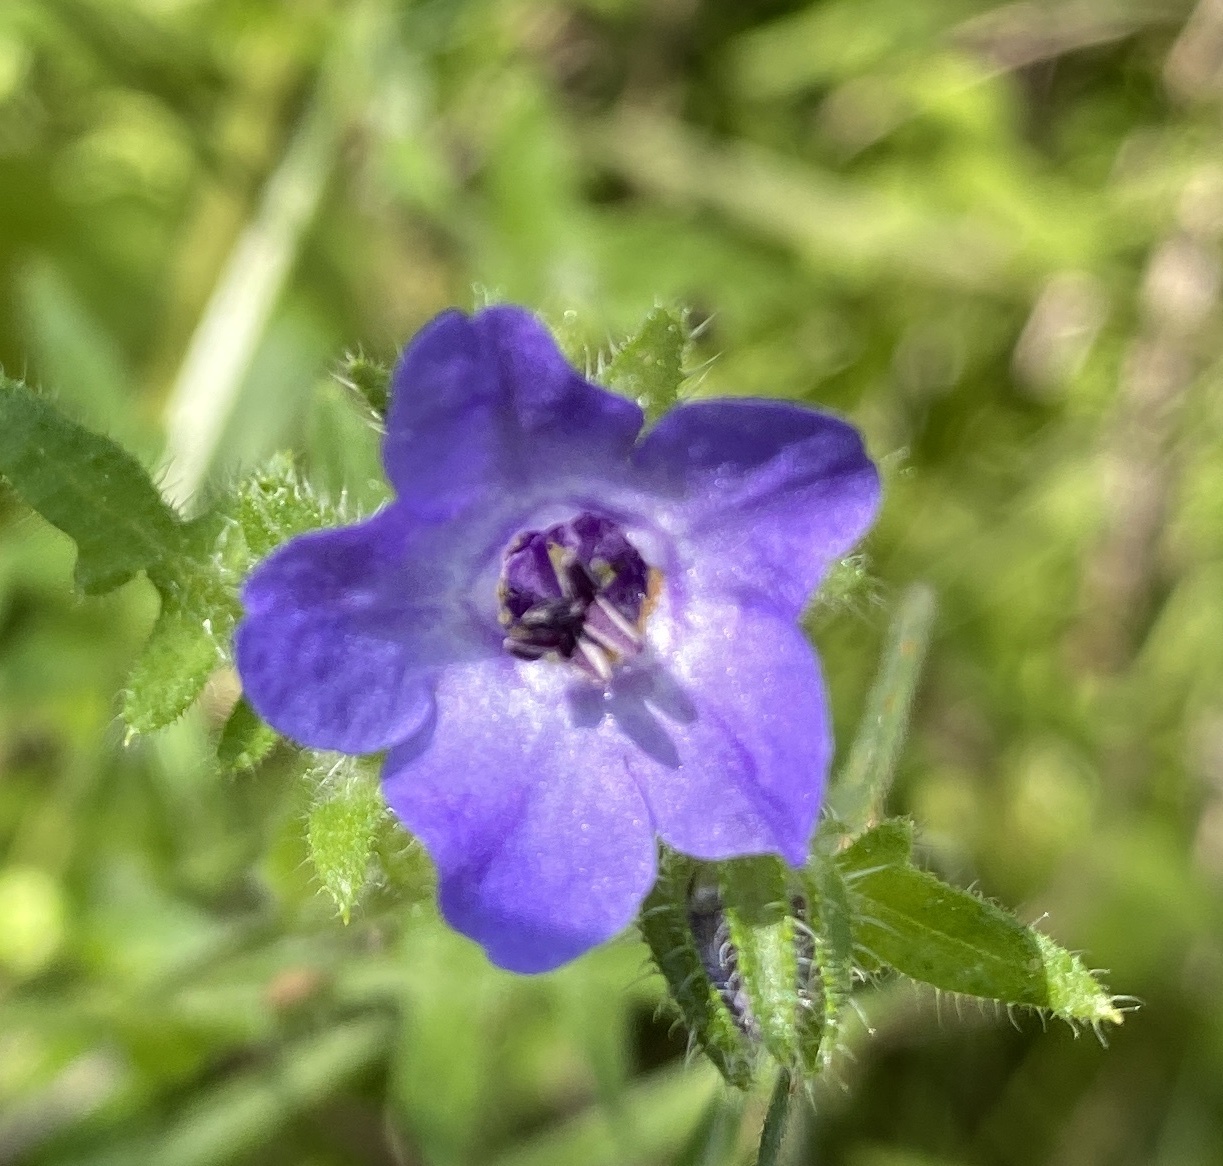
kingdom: Plantae
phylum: Tracheophyta
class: Magnoliopsida
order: Boraginales
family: Hydrophyllaceae
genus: Pholistoma
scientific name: Pholistoma auritum
